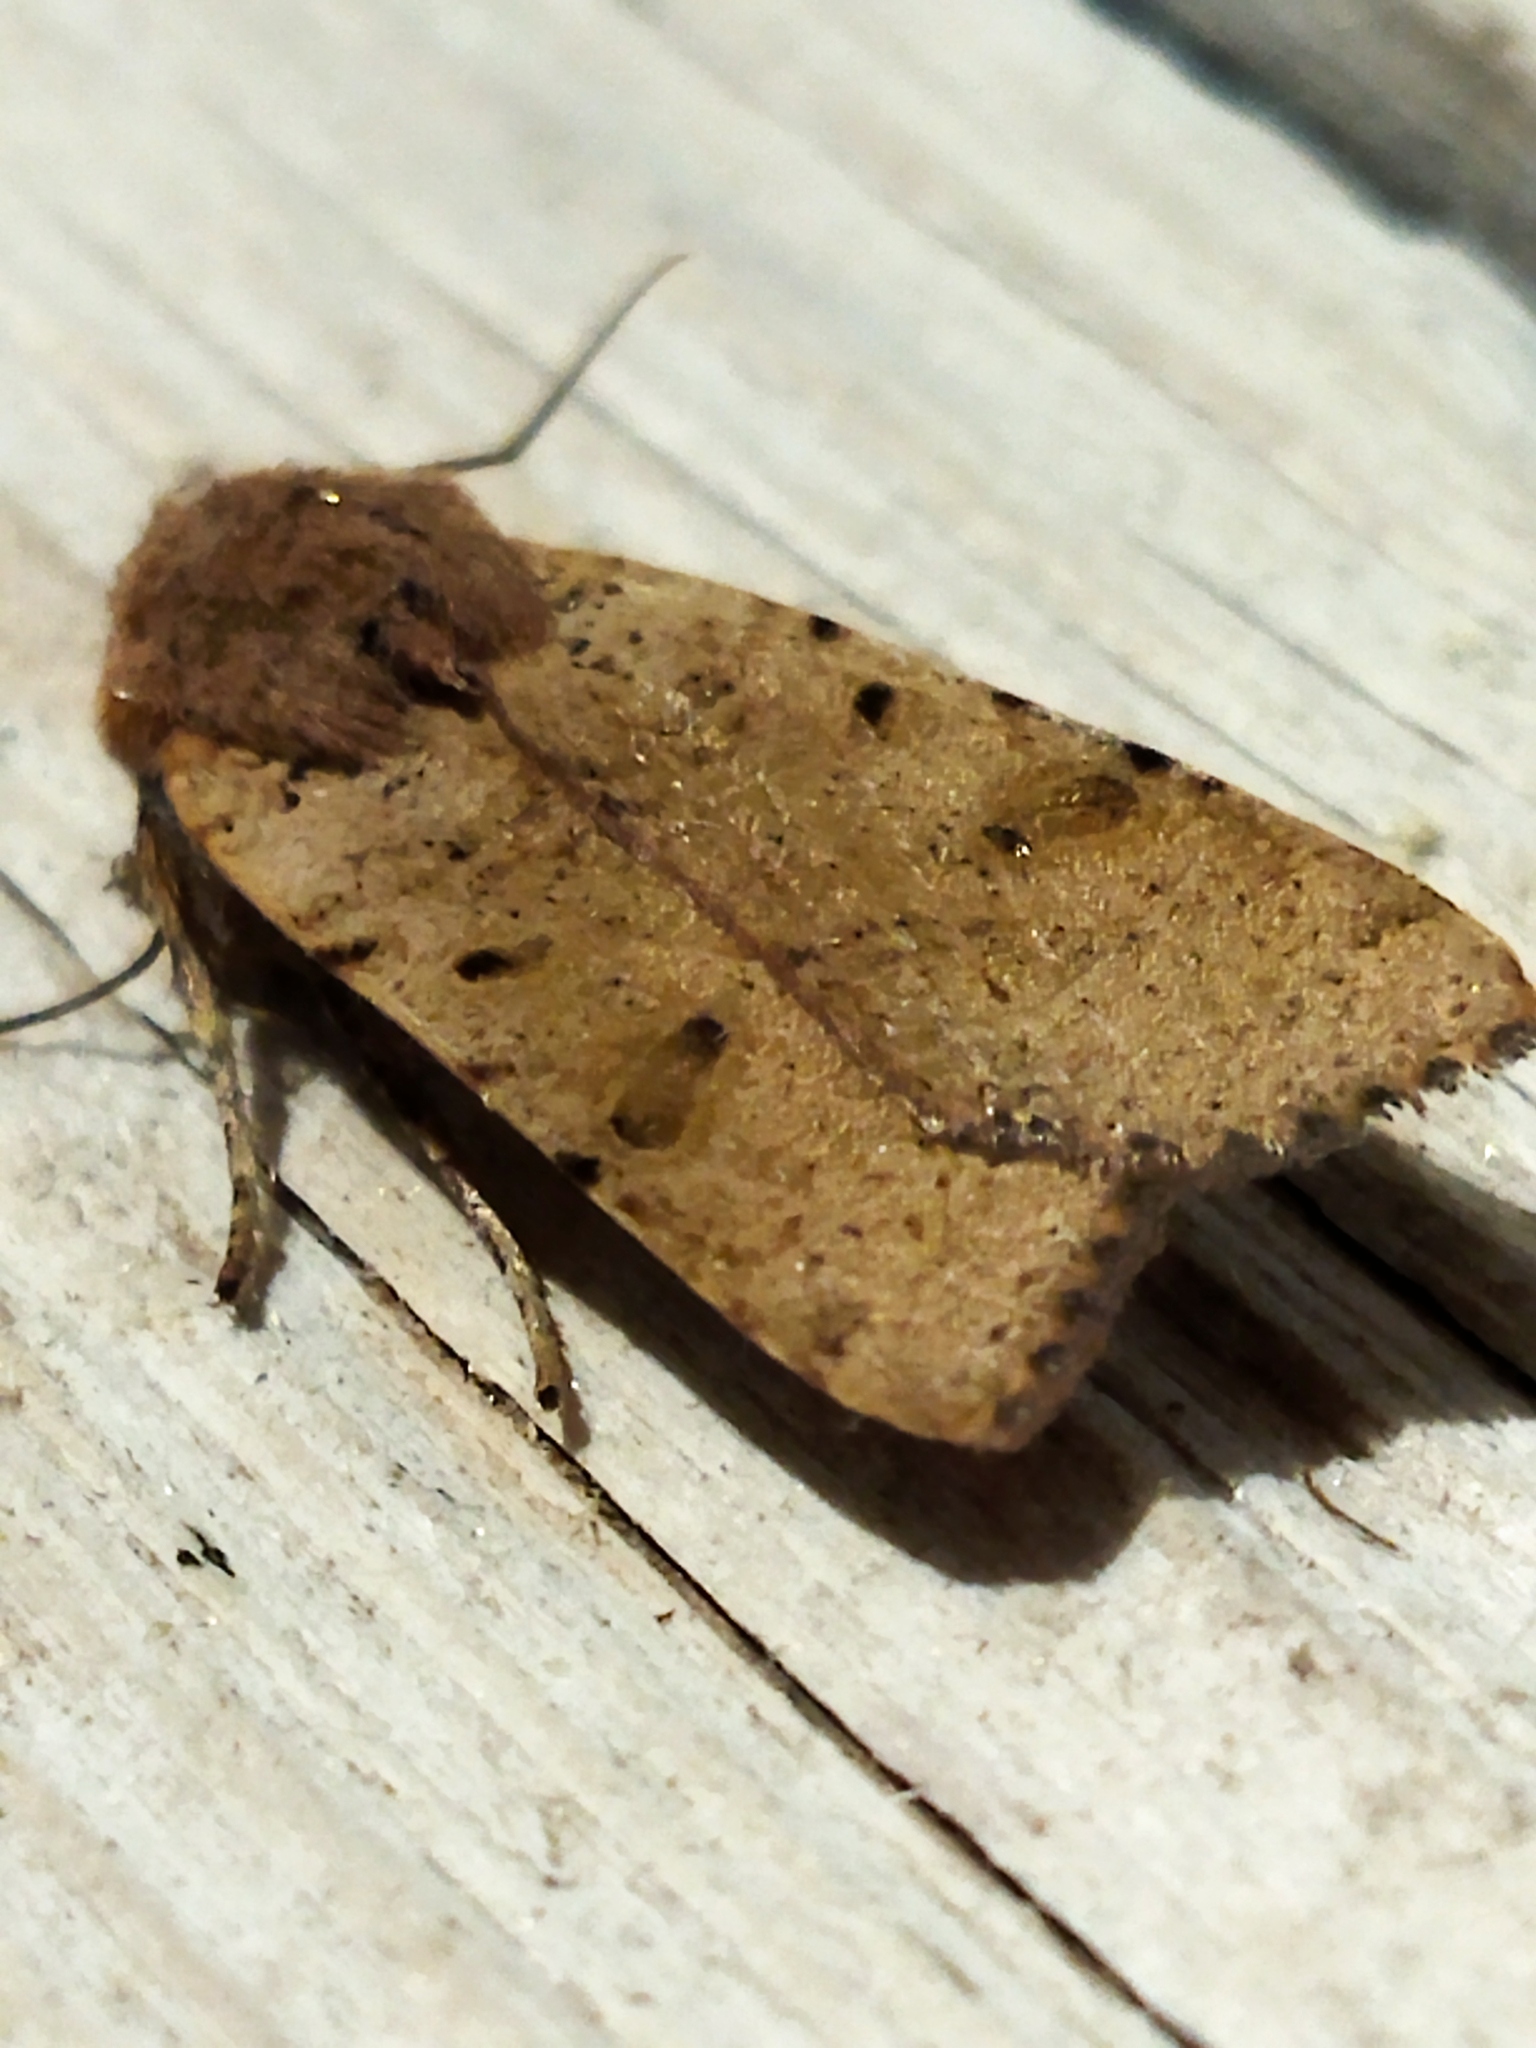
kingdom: Animalia
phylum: Arthropoda
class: Insecta
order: Lepidoptera
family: Noctuidae
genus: Agrochola
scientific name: Agrochola lychnidis
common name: Beaded chestnut
